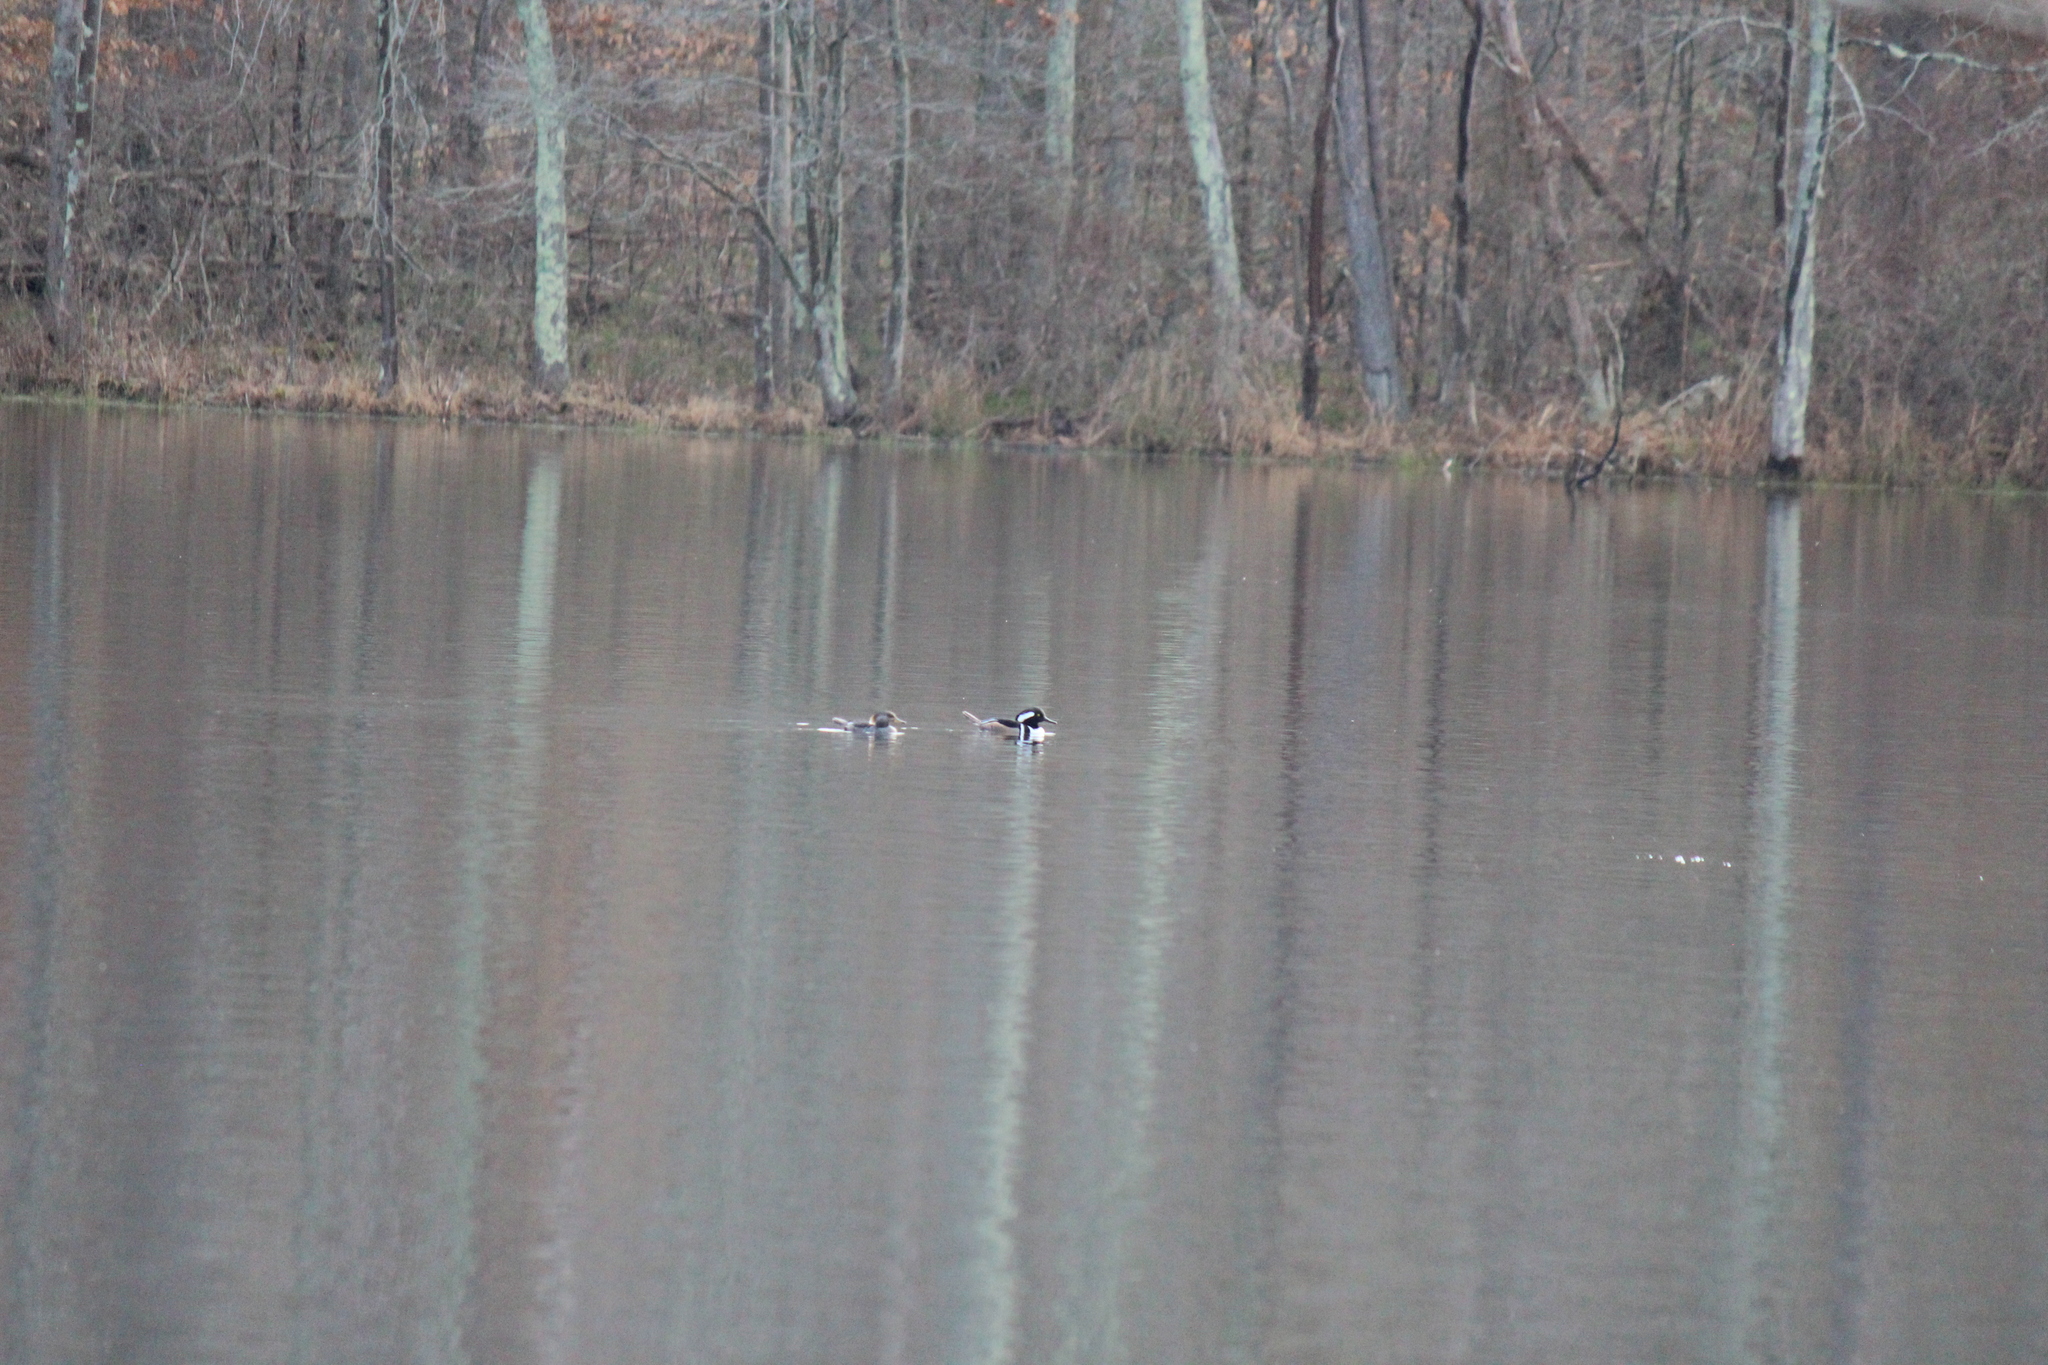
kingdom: Animalia
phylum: Chordata
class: Aves
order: Anseriformes
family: Anatidae
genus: Lophodytes
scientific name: Lophodytes cucullatus
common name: Hooded merganser
